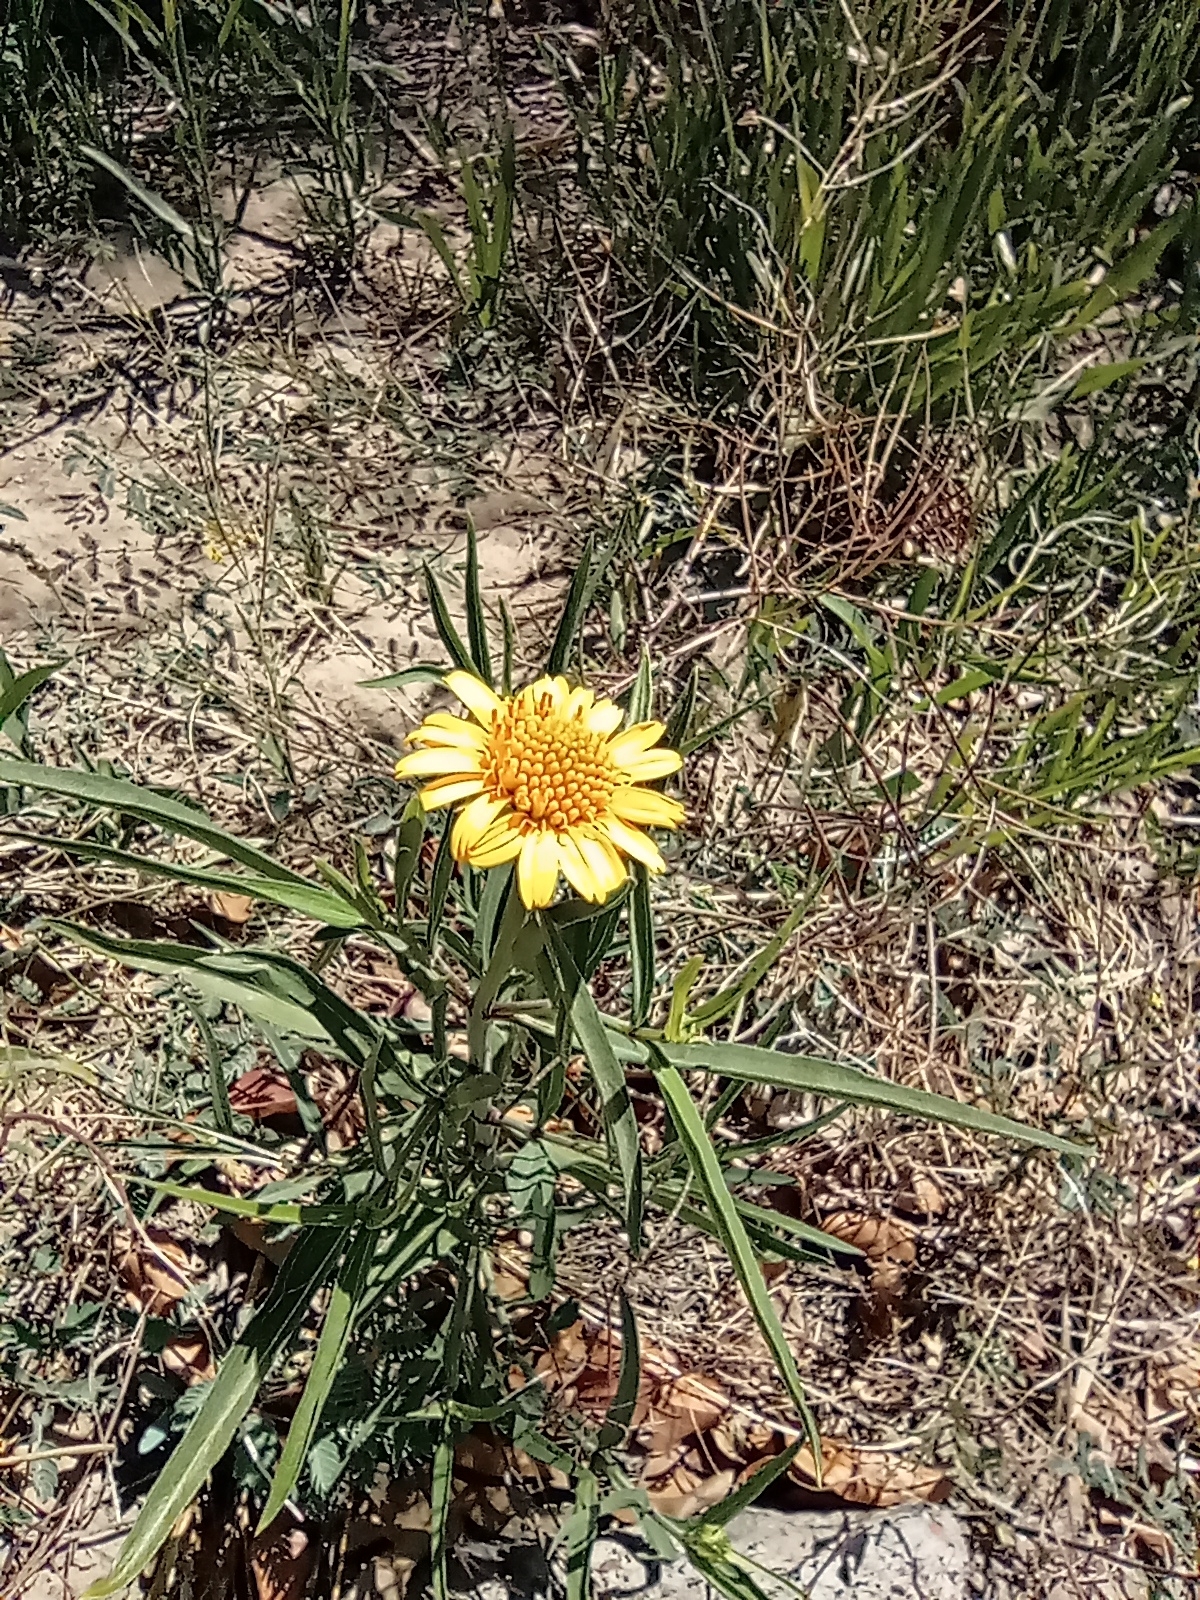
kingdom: Plantae
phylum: Tracheophyta
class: Magnoliopsida
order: Asterales
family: Asteraceae
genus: Pascalia
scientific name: Pascalia glauca
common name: Beach creeping oxeye
